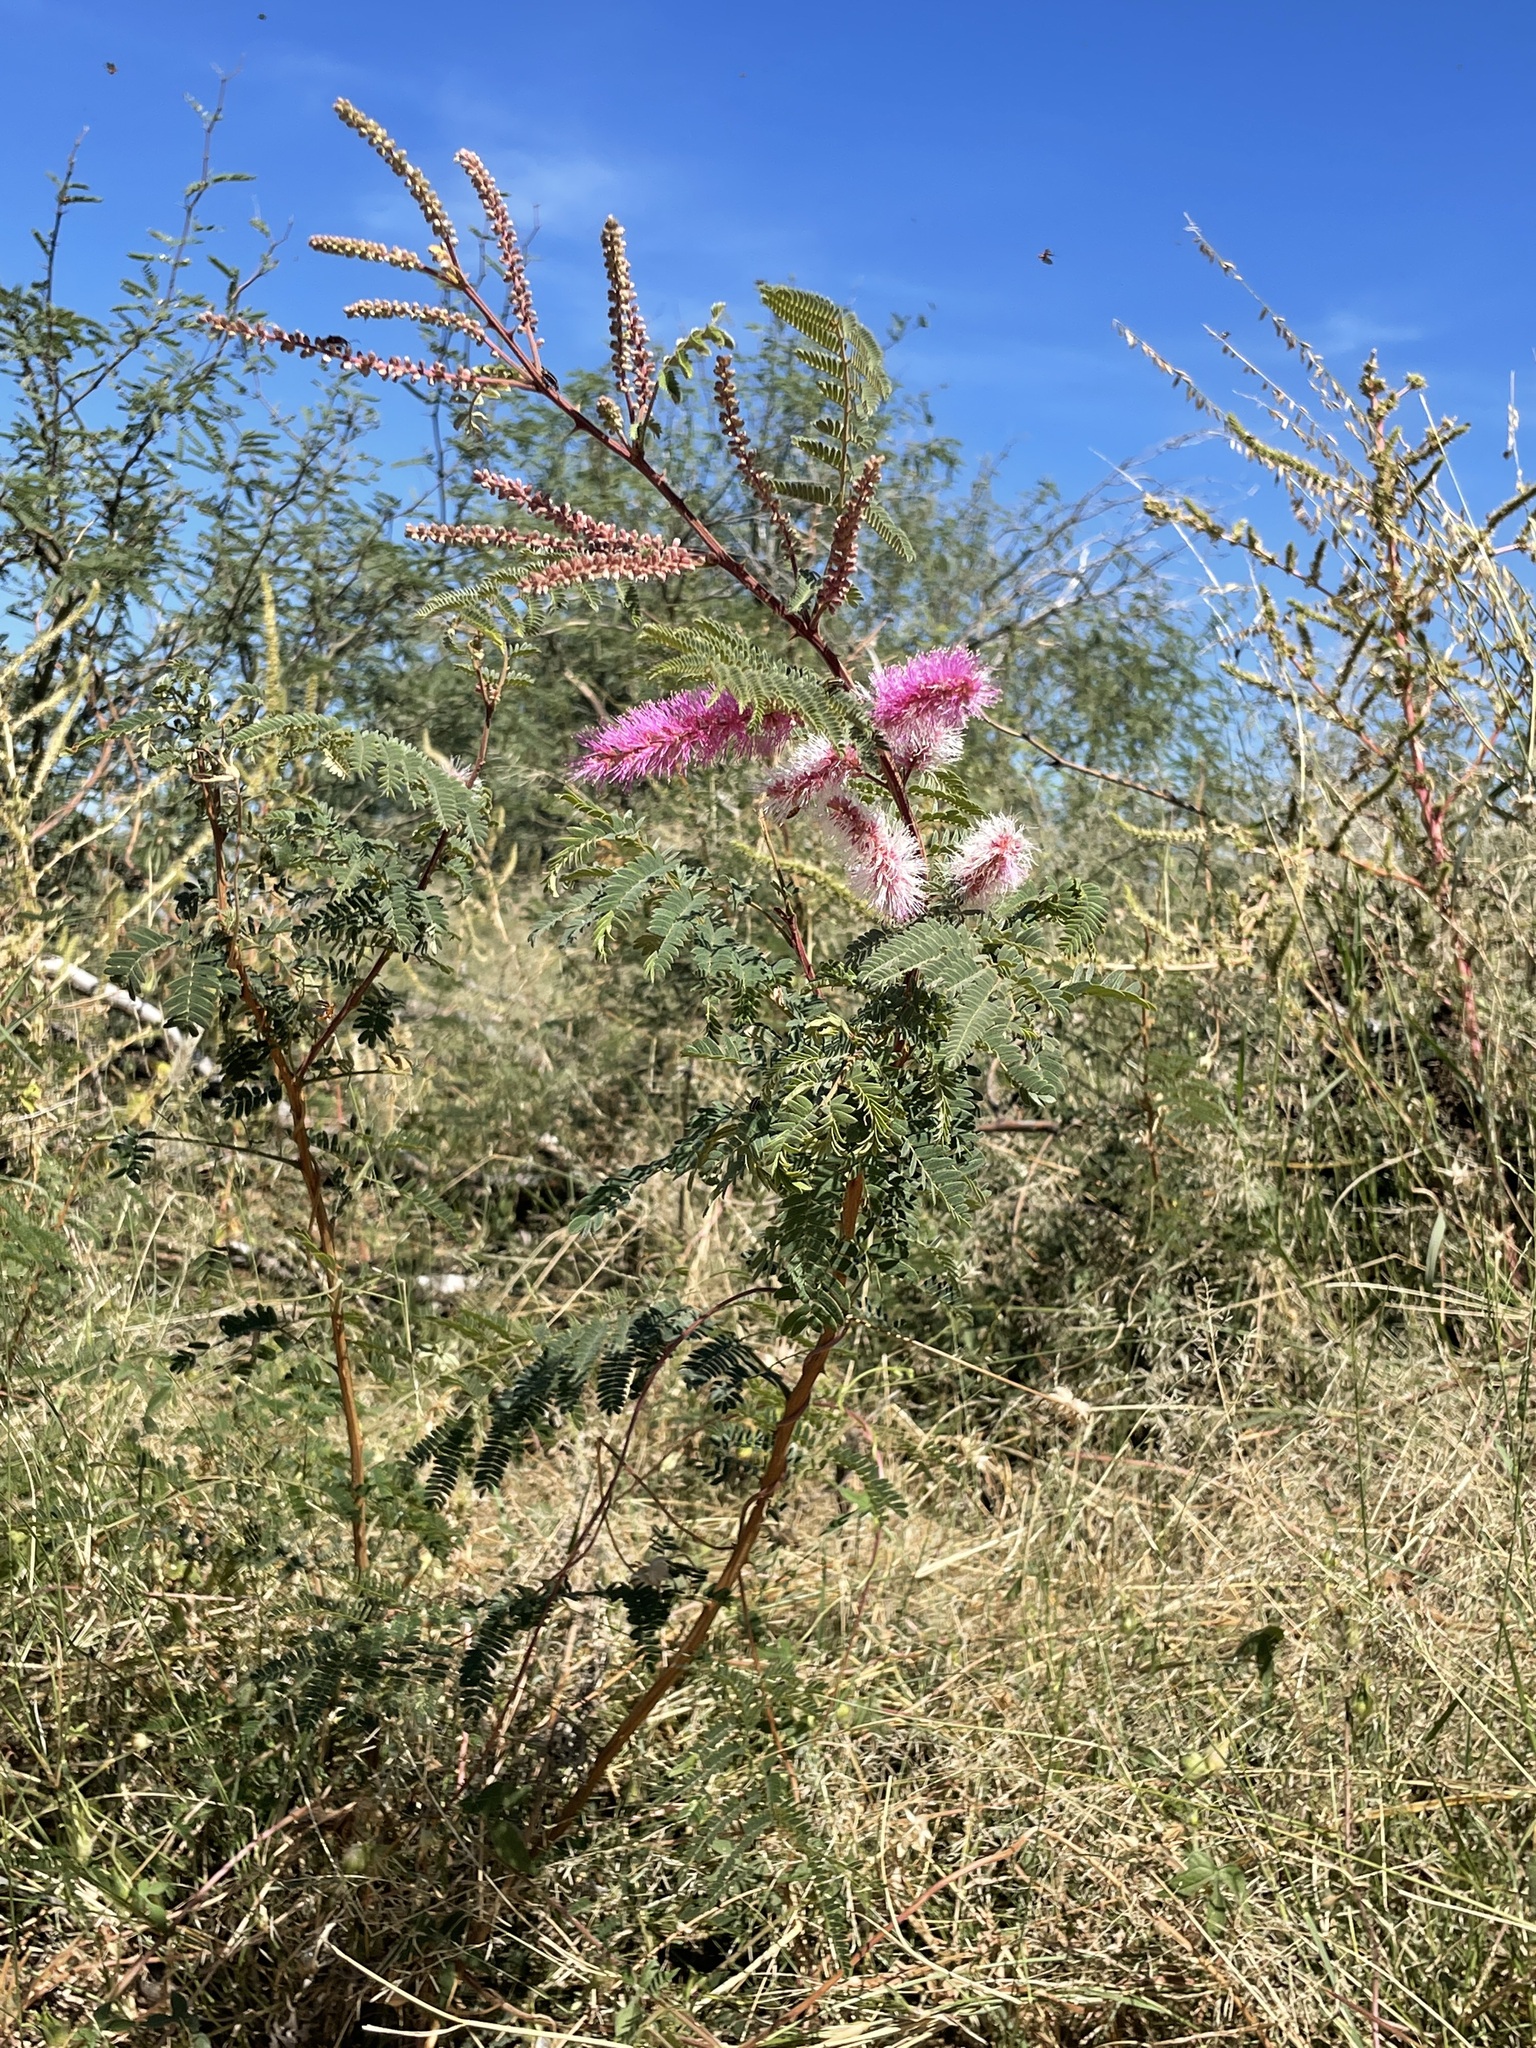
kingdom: Plantae
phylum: Tracheophyta
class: Magnoliopsida
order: Fabales
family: Fabaceae
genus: Mimosa
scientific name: Mimosa dysocarpa
